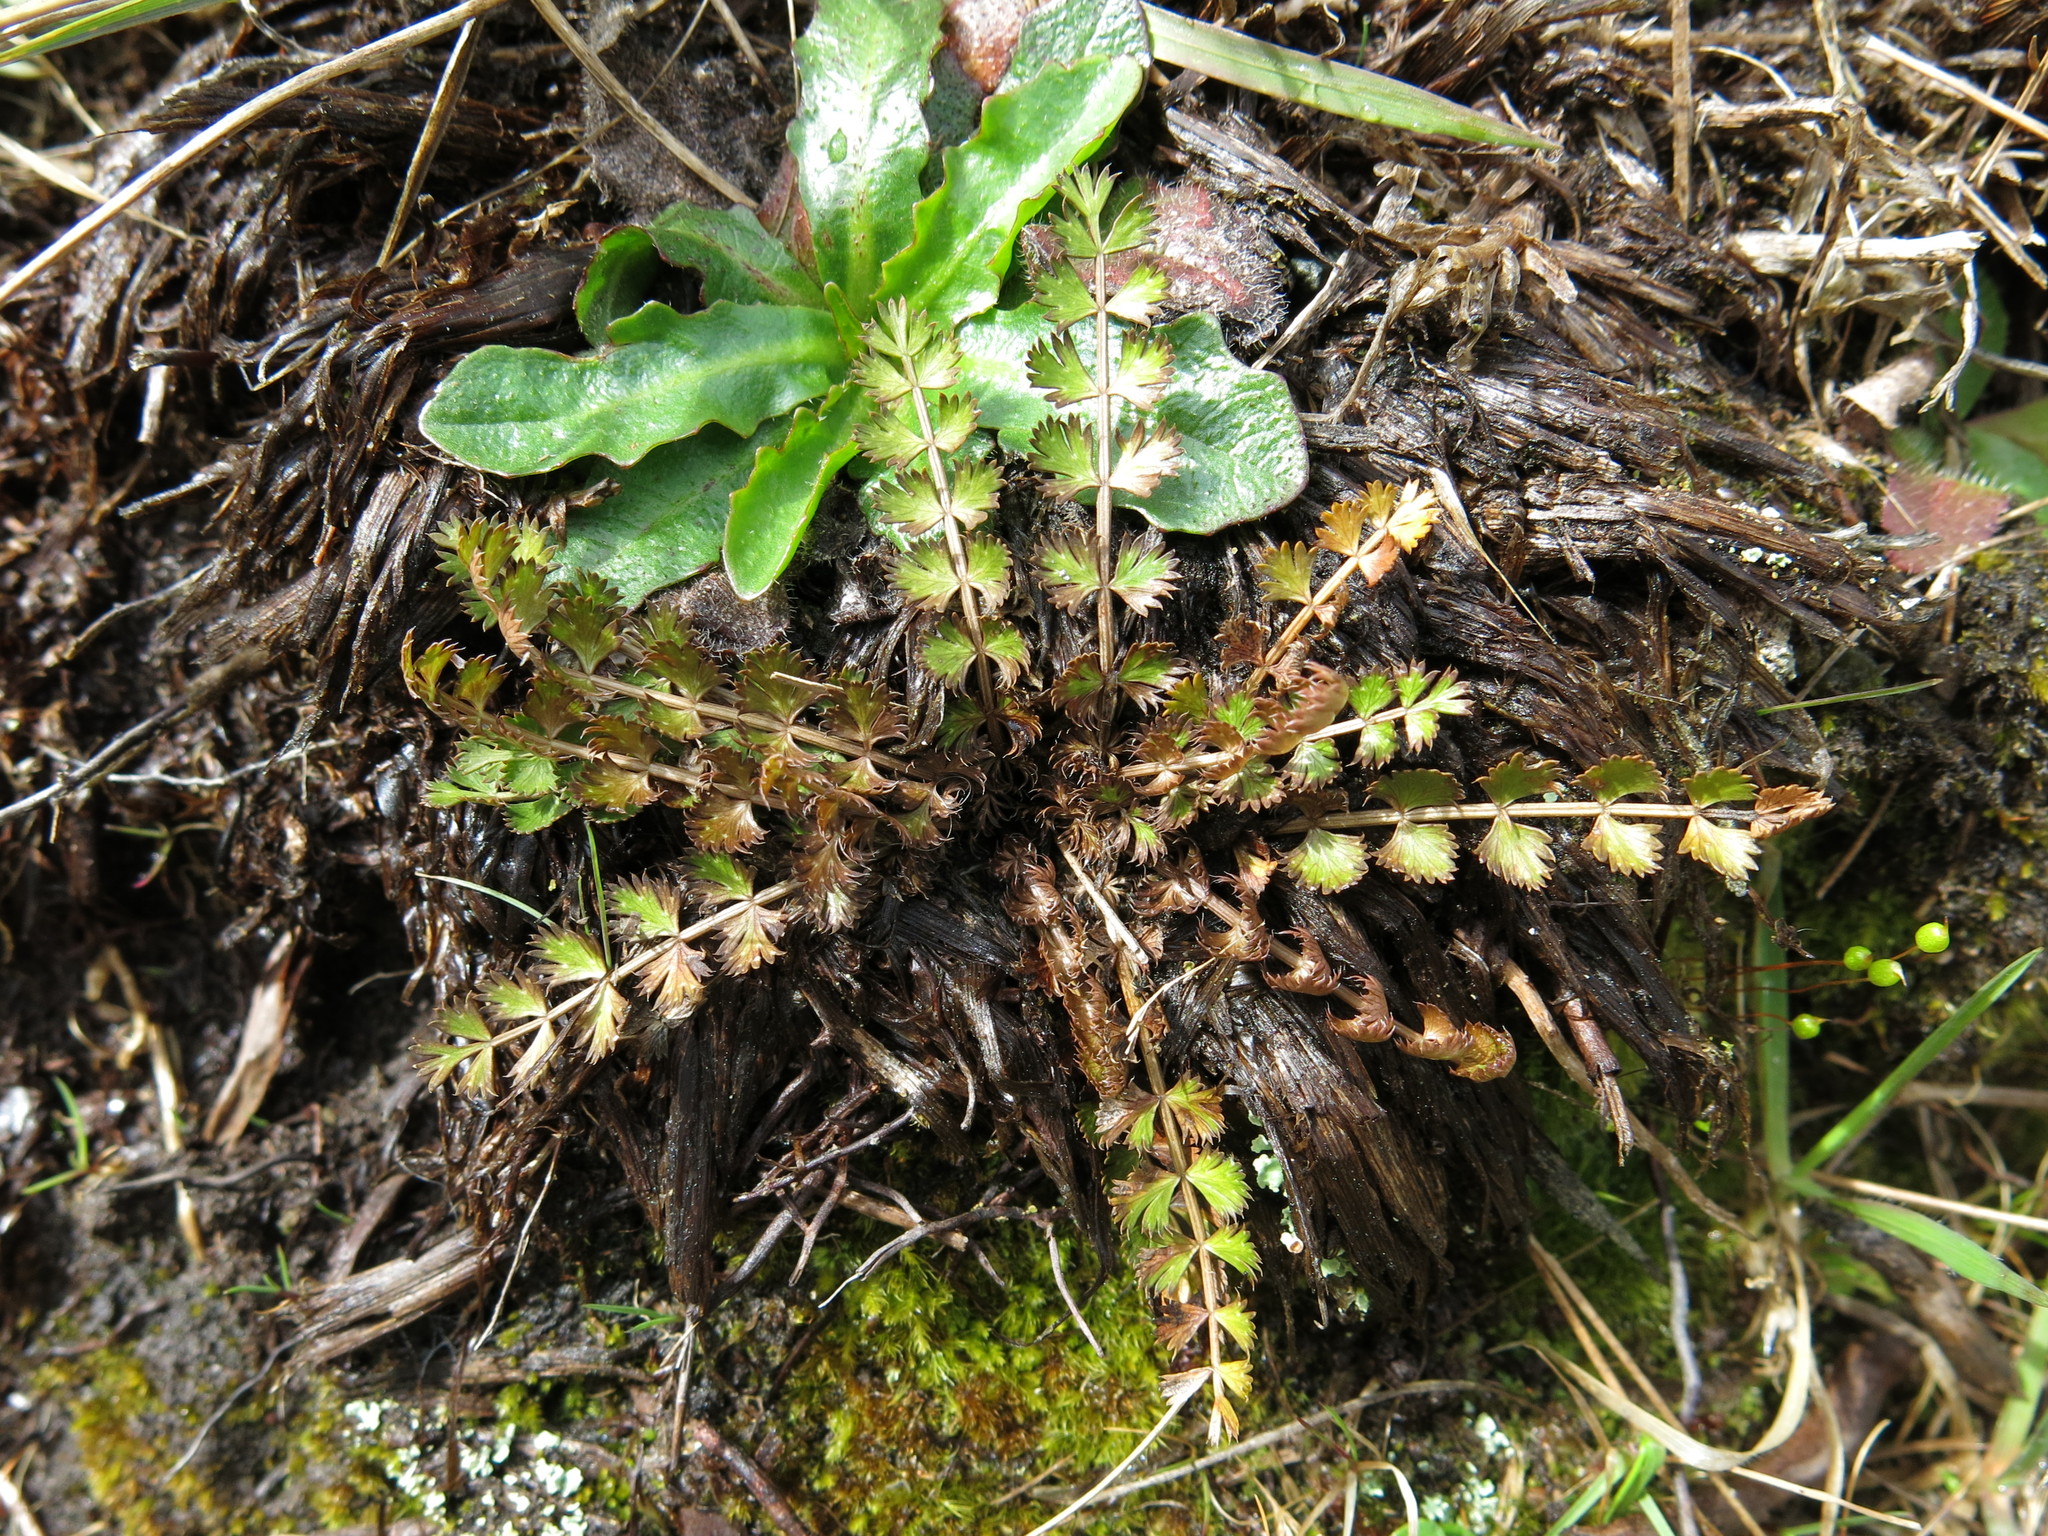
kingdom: Plantae
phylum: Tracheophyta
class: Magnoliopsida
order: Apiales
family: Apiaceae
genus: Anisotome
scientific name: Anisotome aromatica
